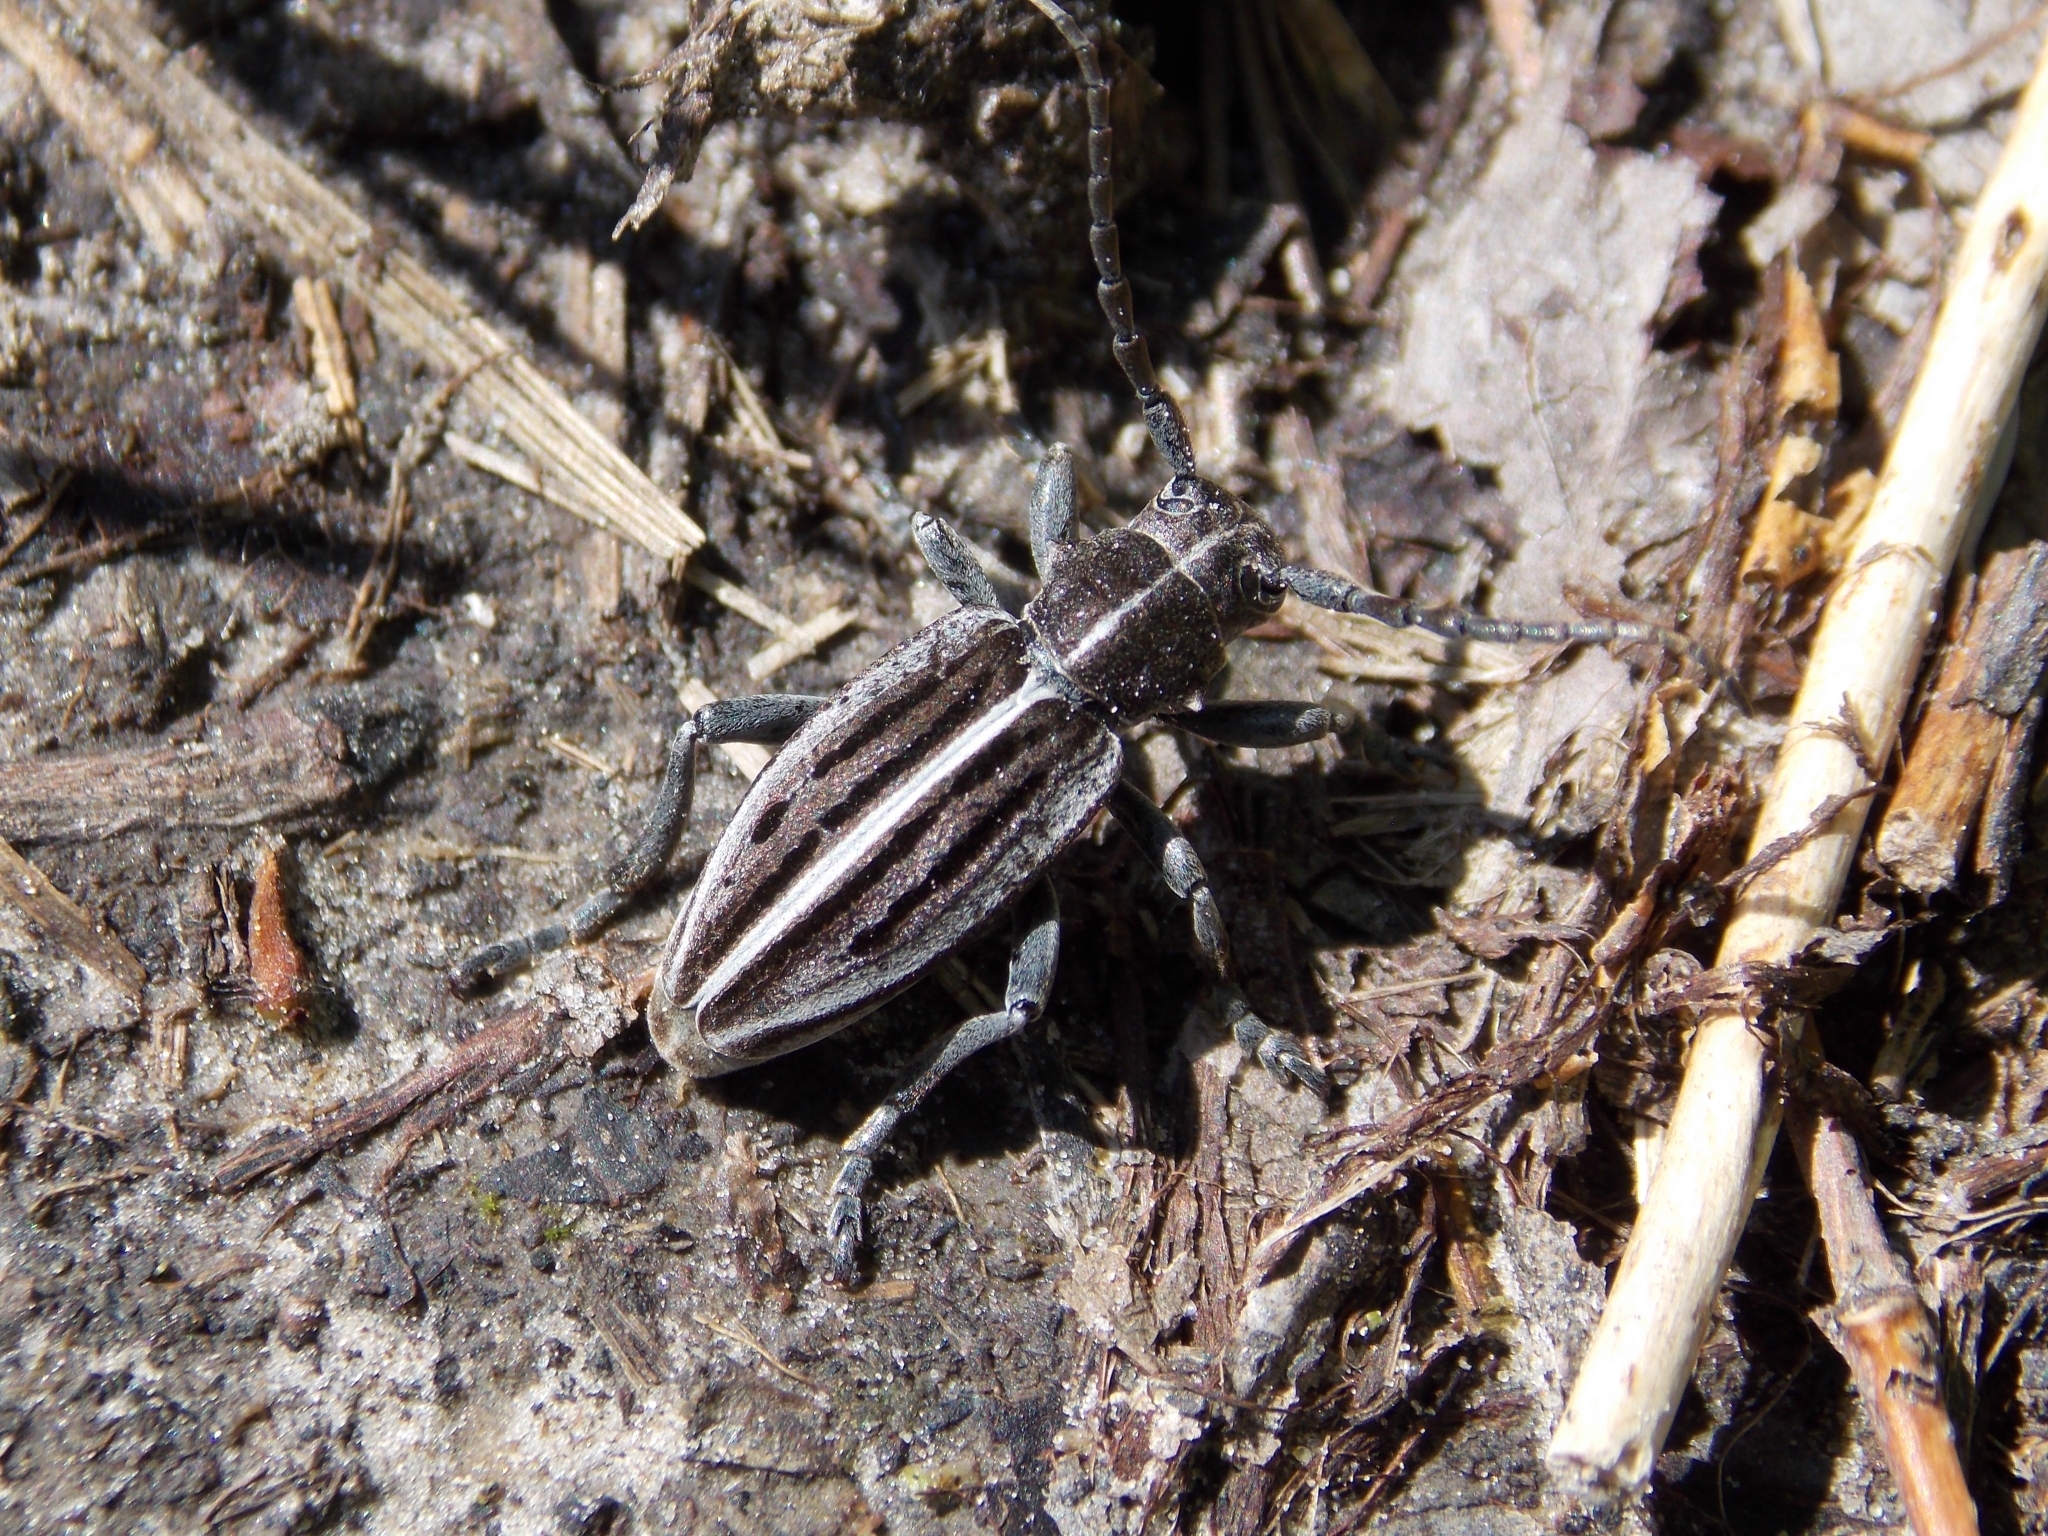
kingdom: Animalia
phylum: Arthropoda
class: Insecta
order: Coleoptera
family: Cerambycidae
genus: Dorcadion
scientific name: Dorcadion holosericeum
